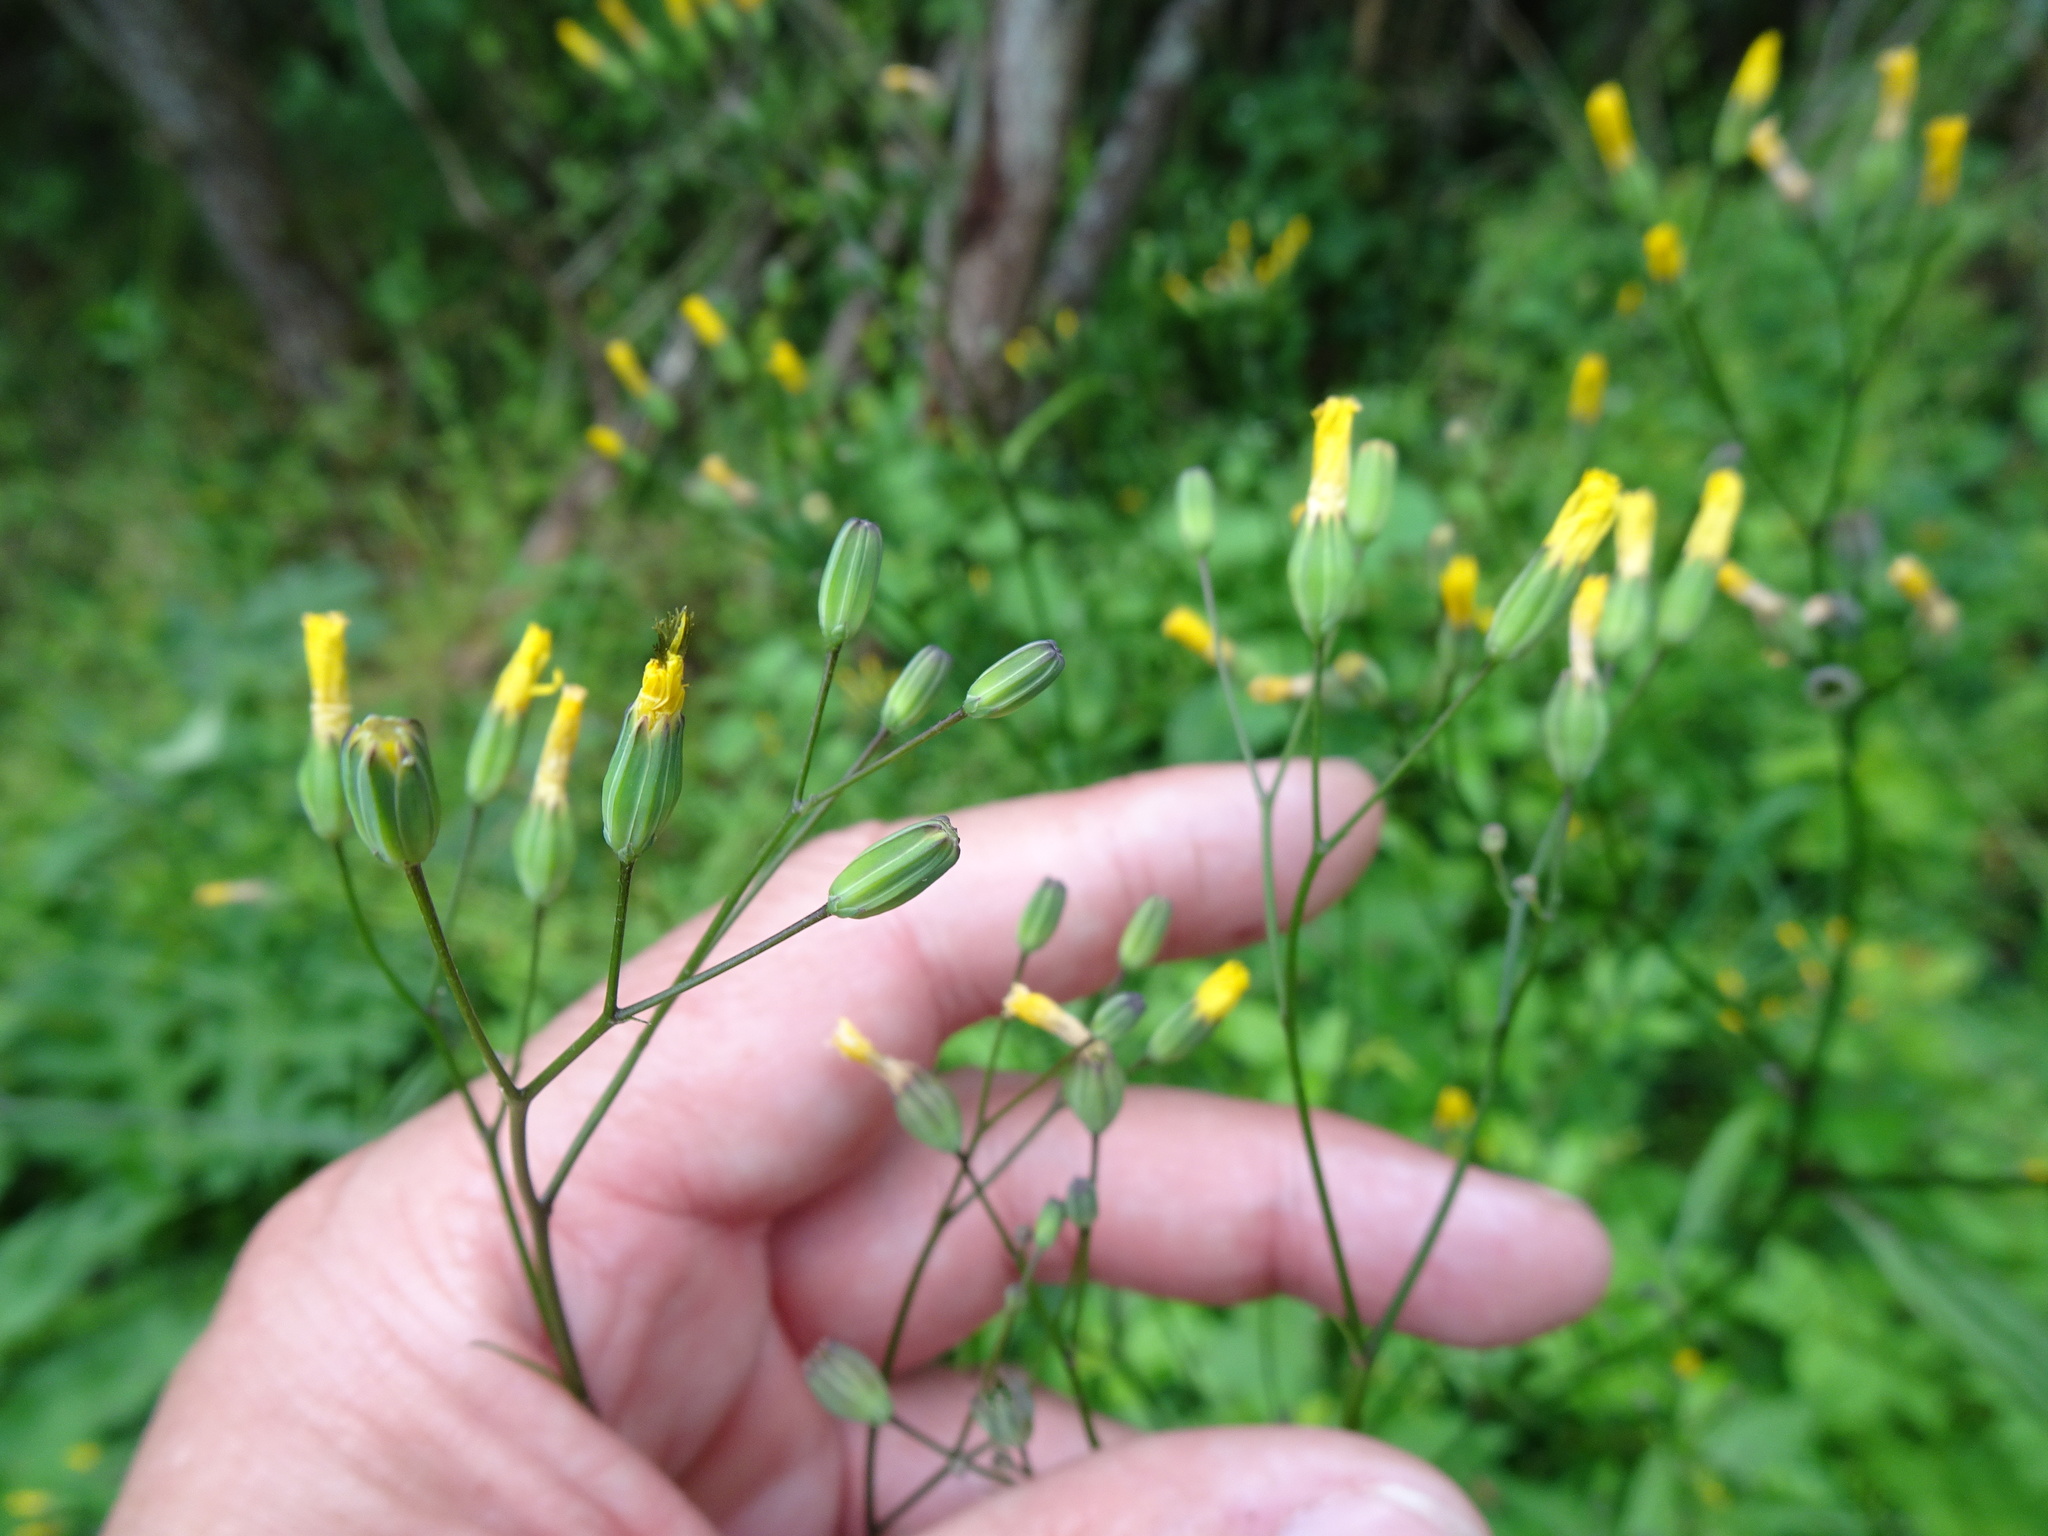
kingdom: Plantae
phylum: Tracheophyta
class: Magnoliopsida
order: Asterales
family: Asteraceae
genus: Lapsana
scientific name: Lapsana communis
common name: Nipplewort
